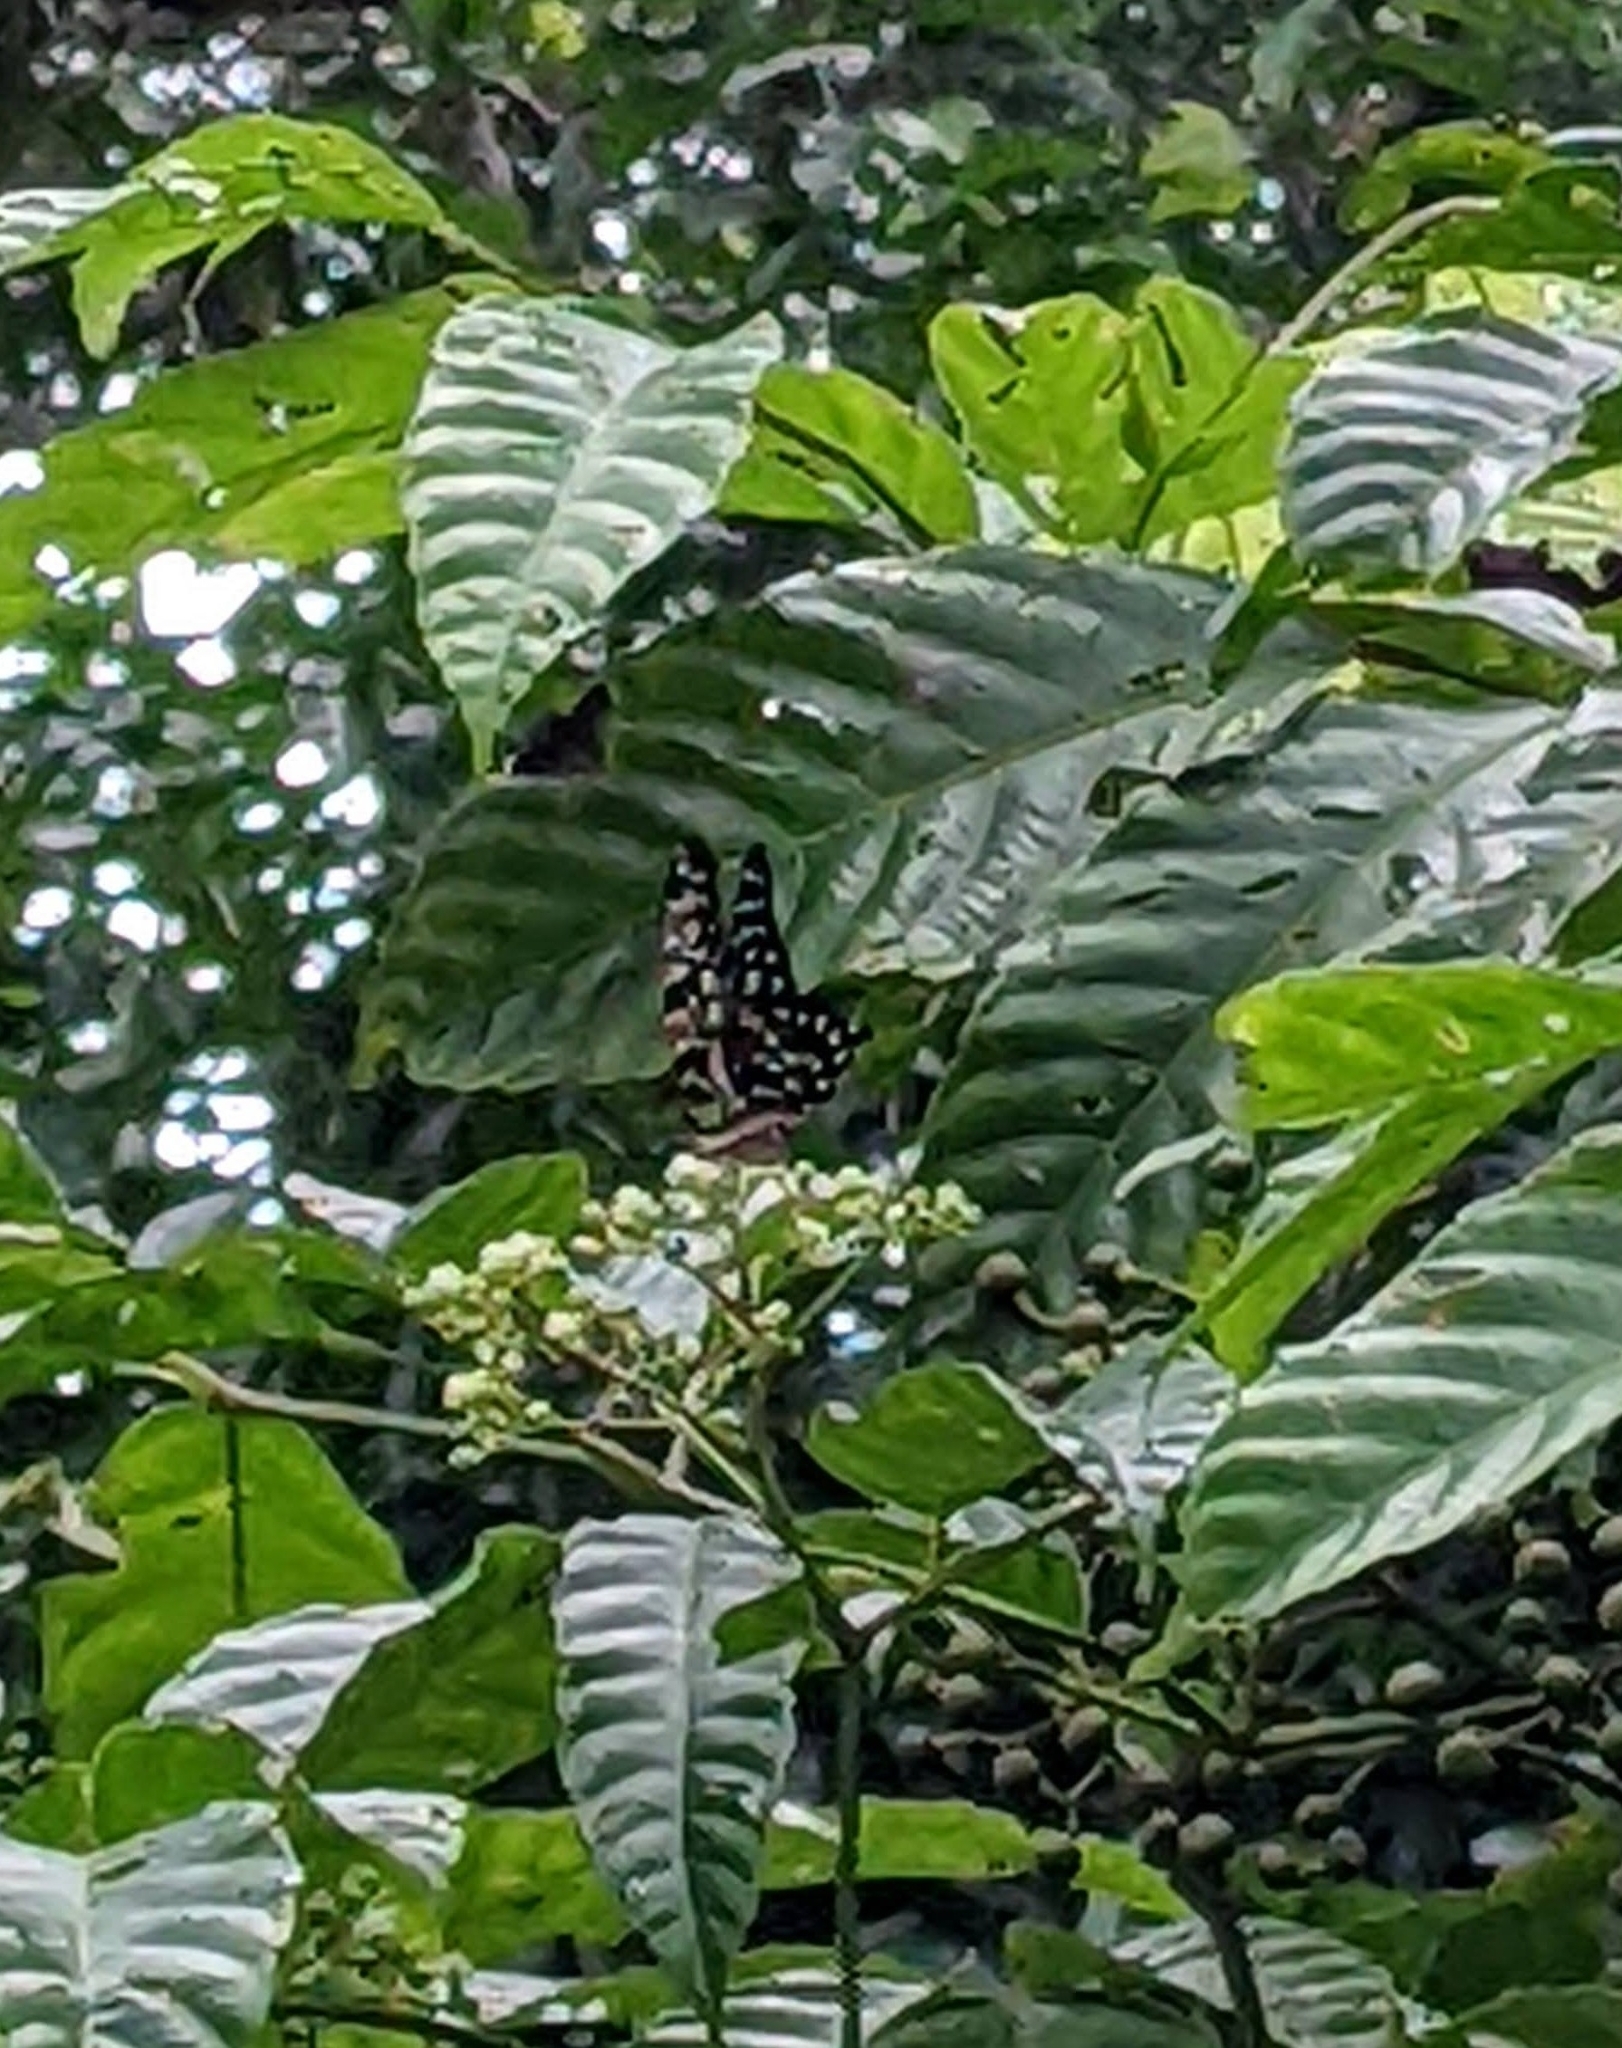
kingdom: Animalia
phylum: Arthropoda
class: Insecta
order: Lepidoptera
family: Papilionidae
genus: Graphium
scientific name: Graphium agamemnon
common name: Tailed jay
